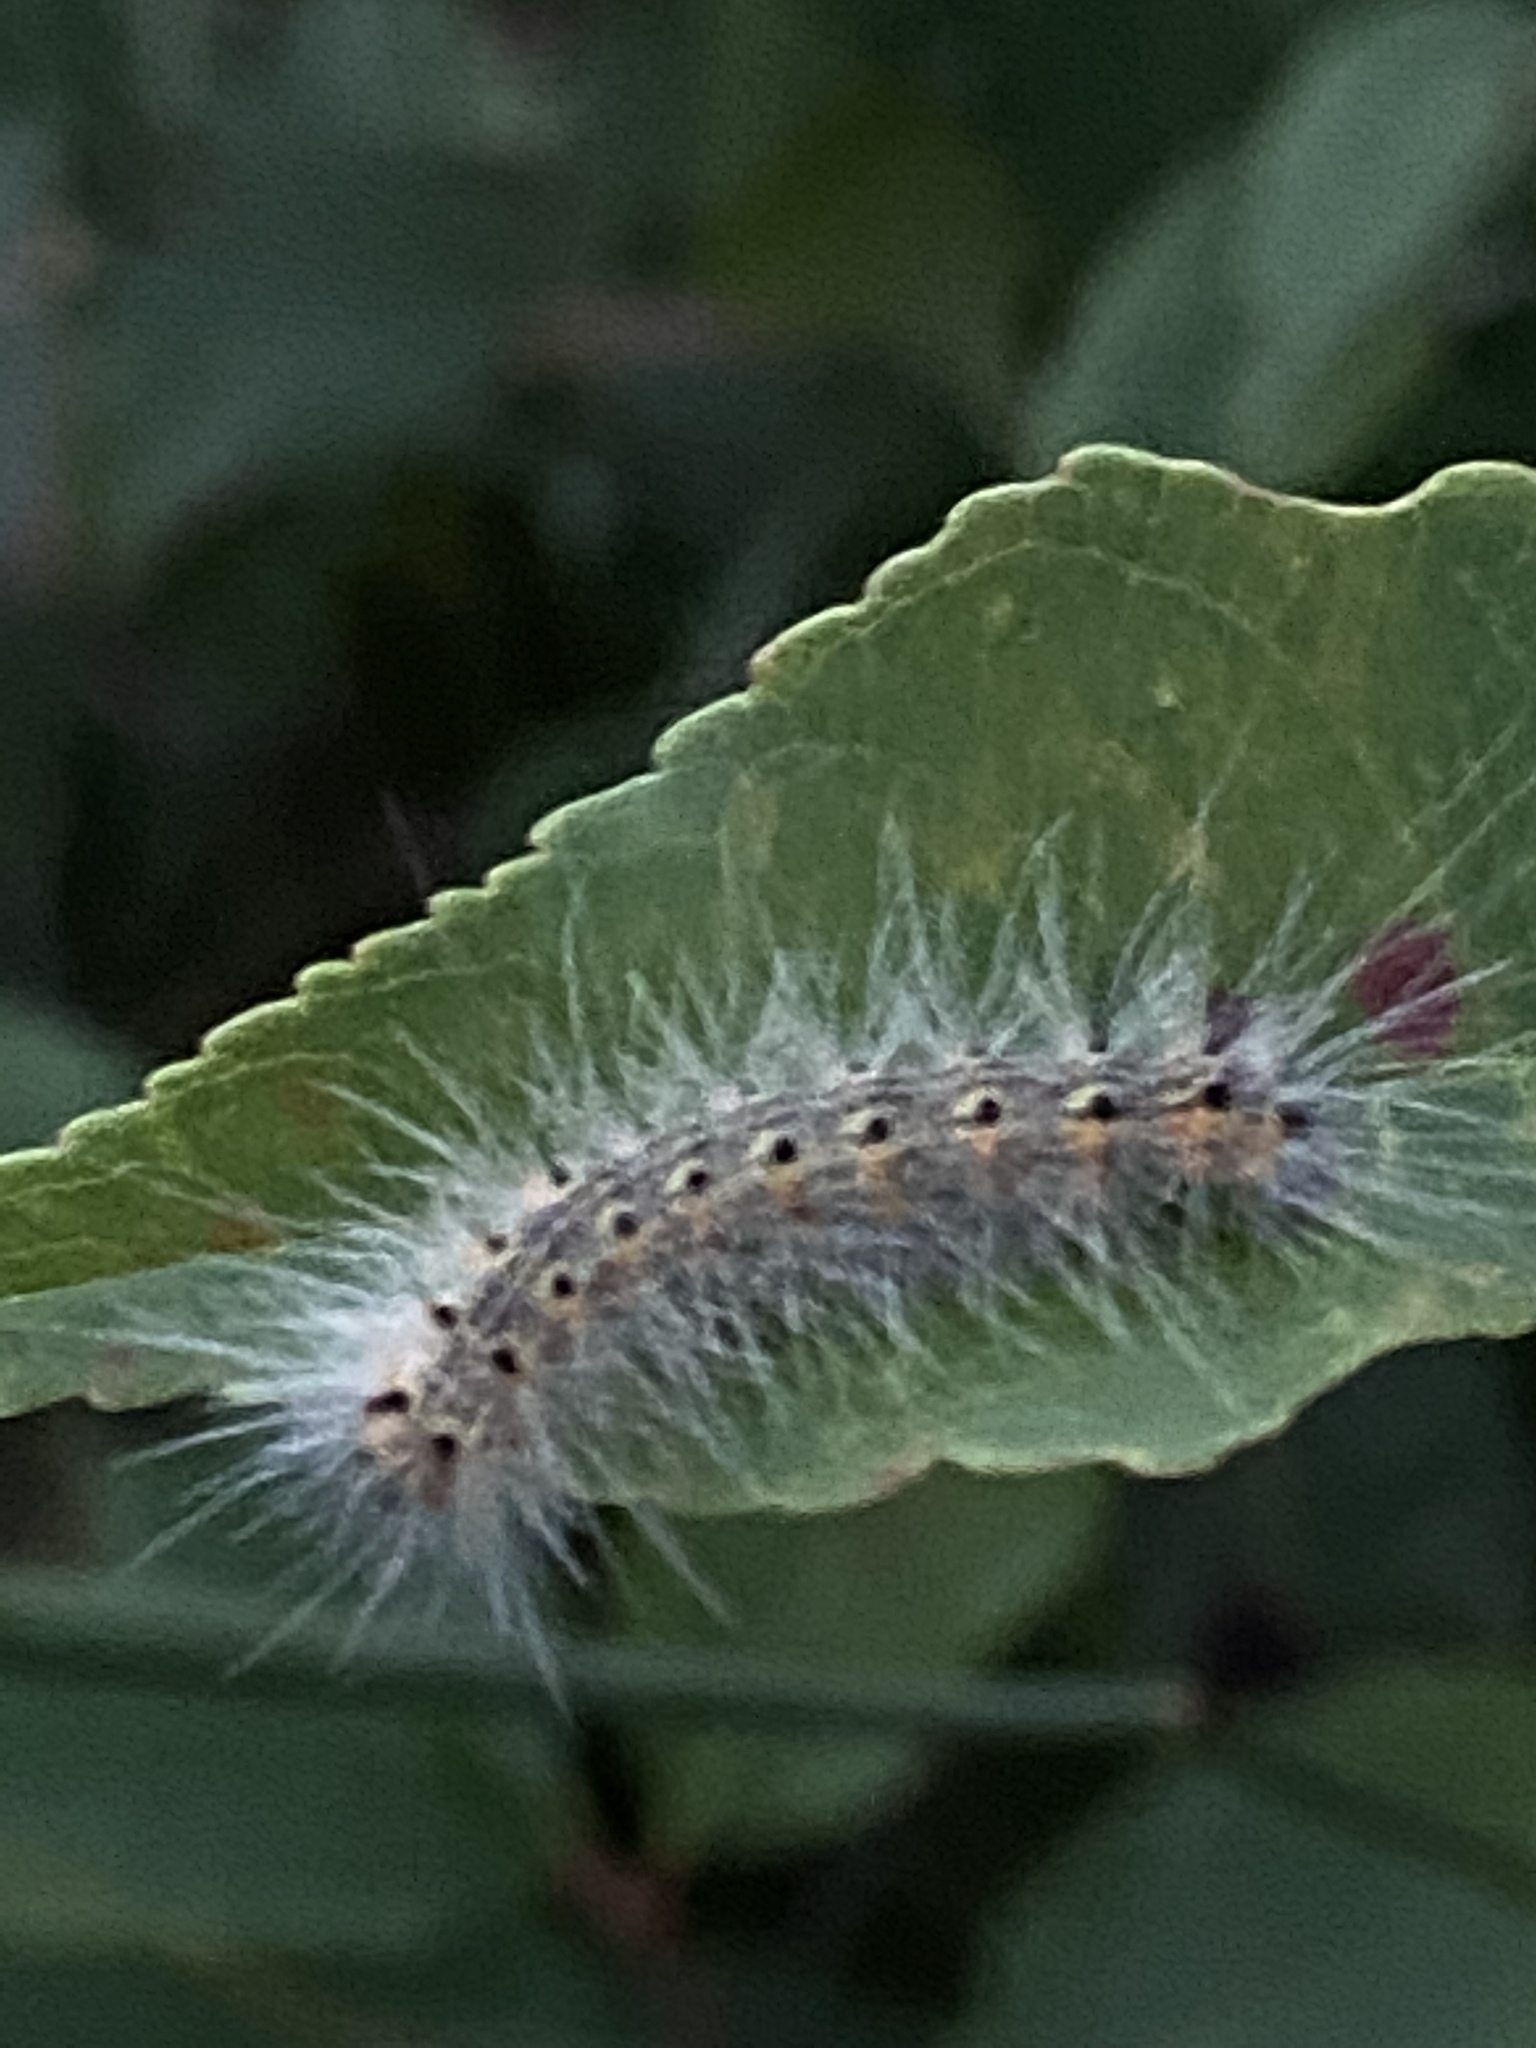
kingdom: Animalia
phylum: Arthropoda
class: Insecta
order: Lepidoptera
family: Erebidae
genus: Hyphantria
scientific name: Hyphantria cunea
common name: American white moth
